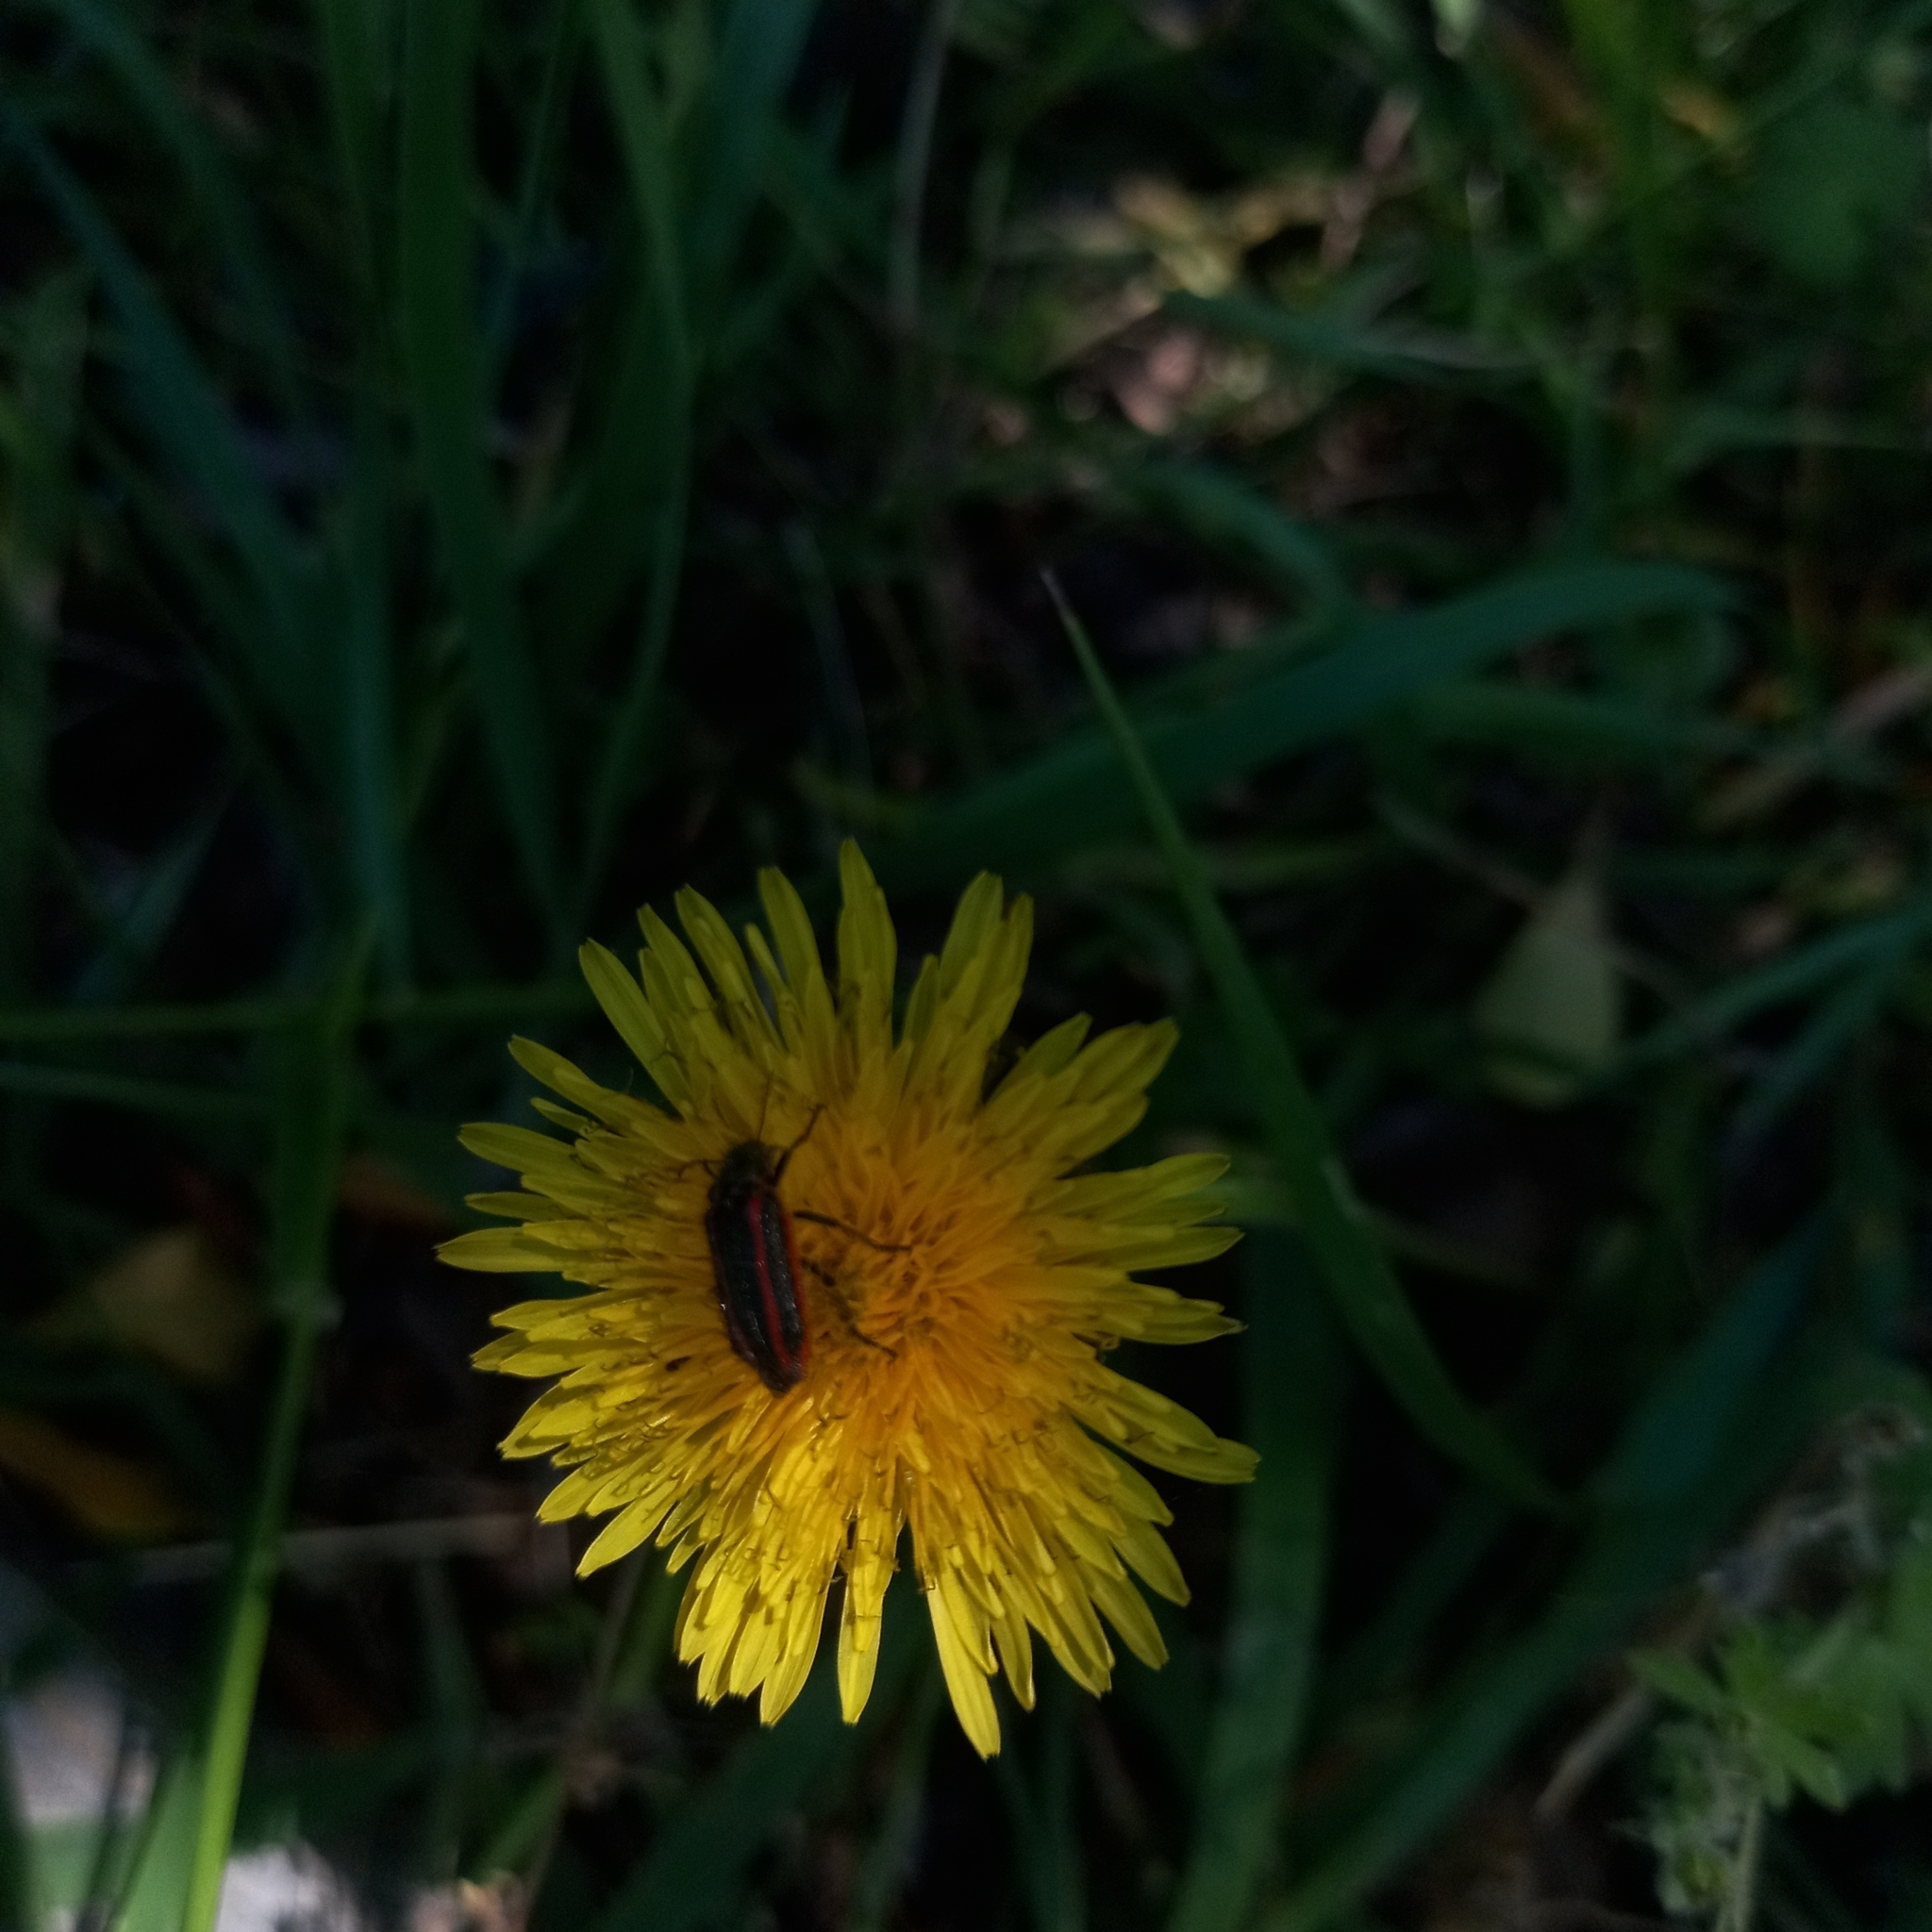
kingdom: Animalia
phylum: Arthropoda
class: Insecta
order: Coleoptera
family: Melyridae
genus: Astylus
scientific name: Astylus
